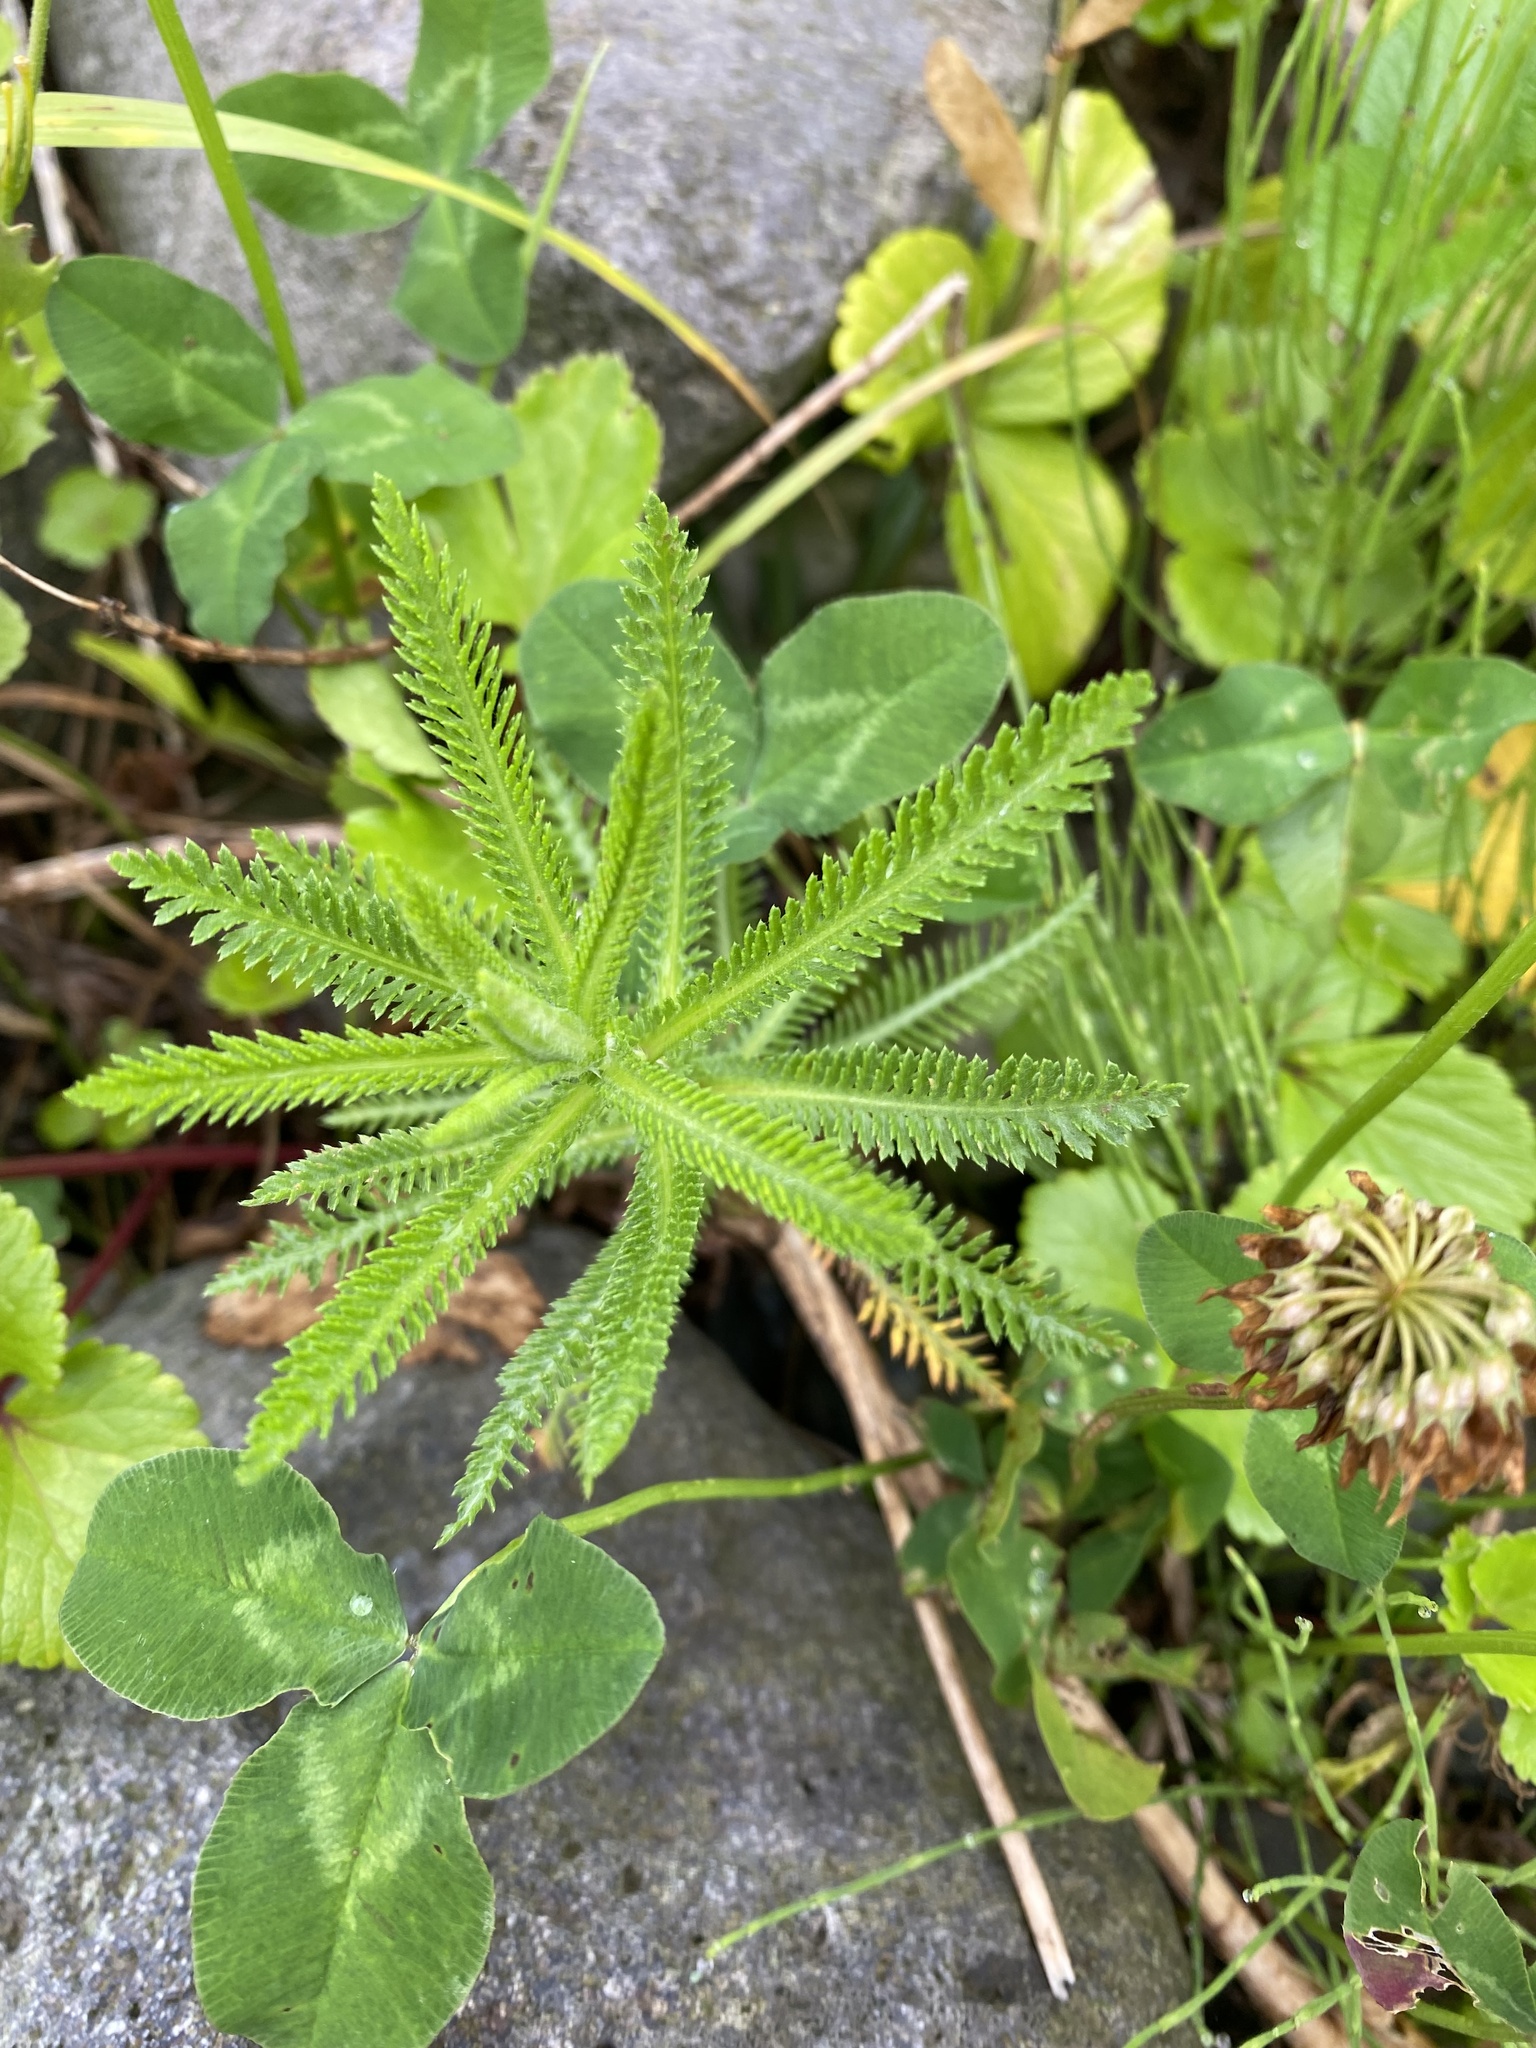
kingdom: Plantae
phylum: Tracheophyta
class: Magnoliopsida
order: Asterales
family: Asteraceae
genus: Achillea
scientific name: Achillea alpina
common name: Siberian yarrow
